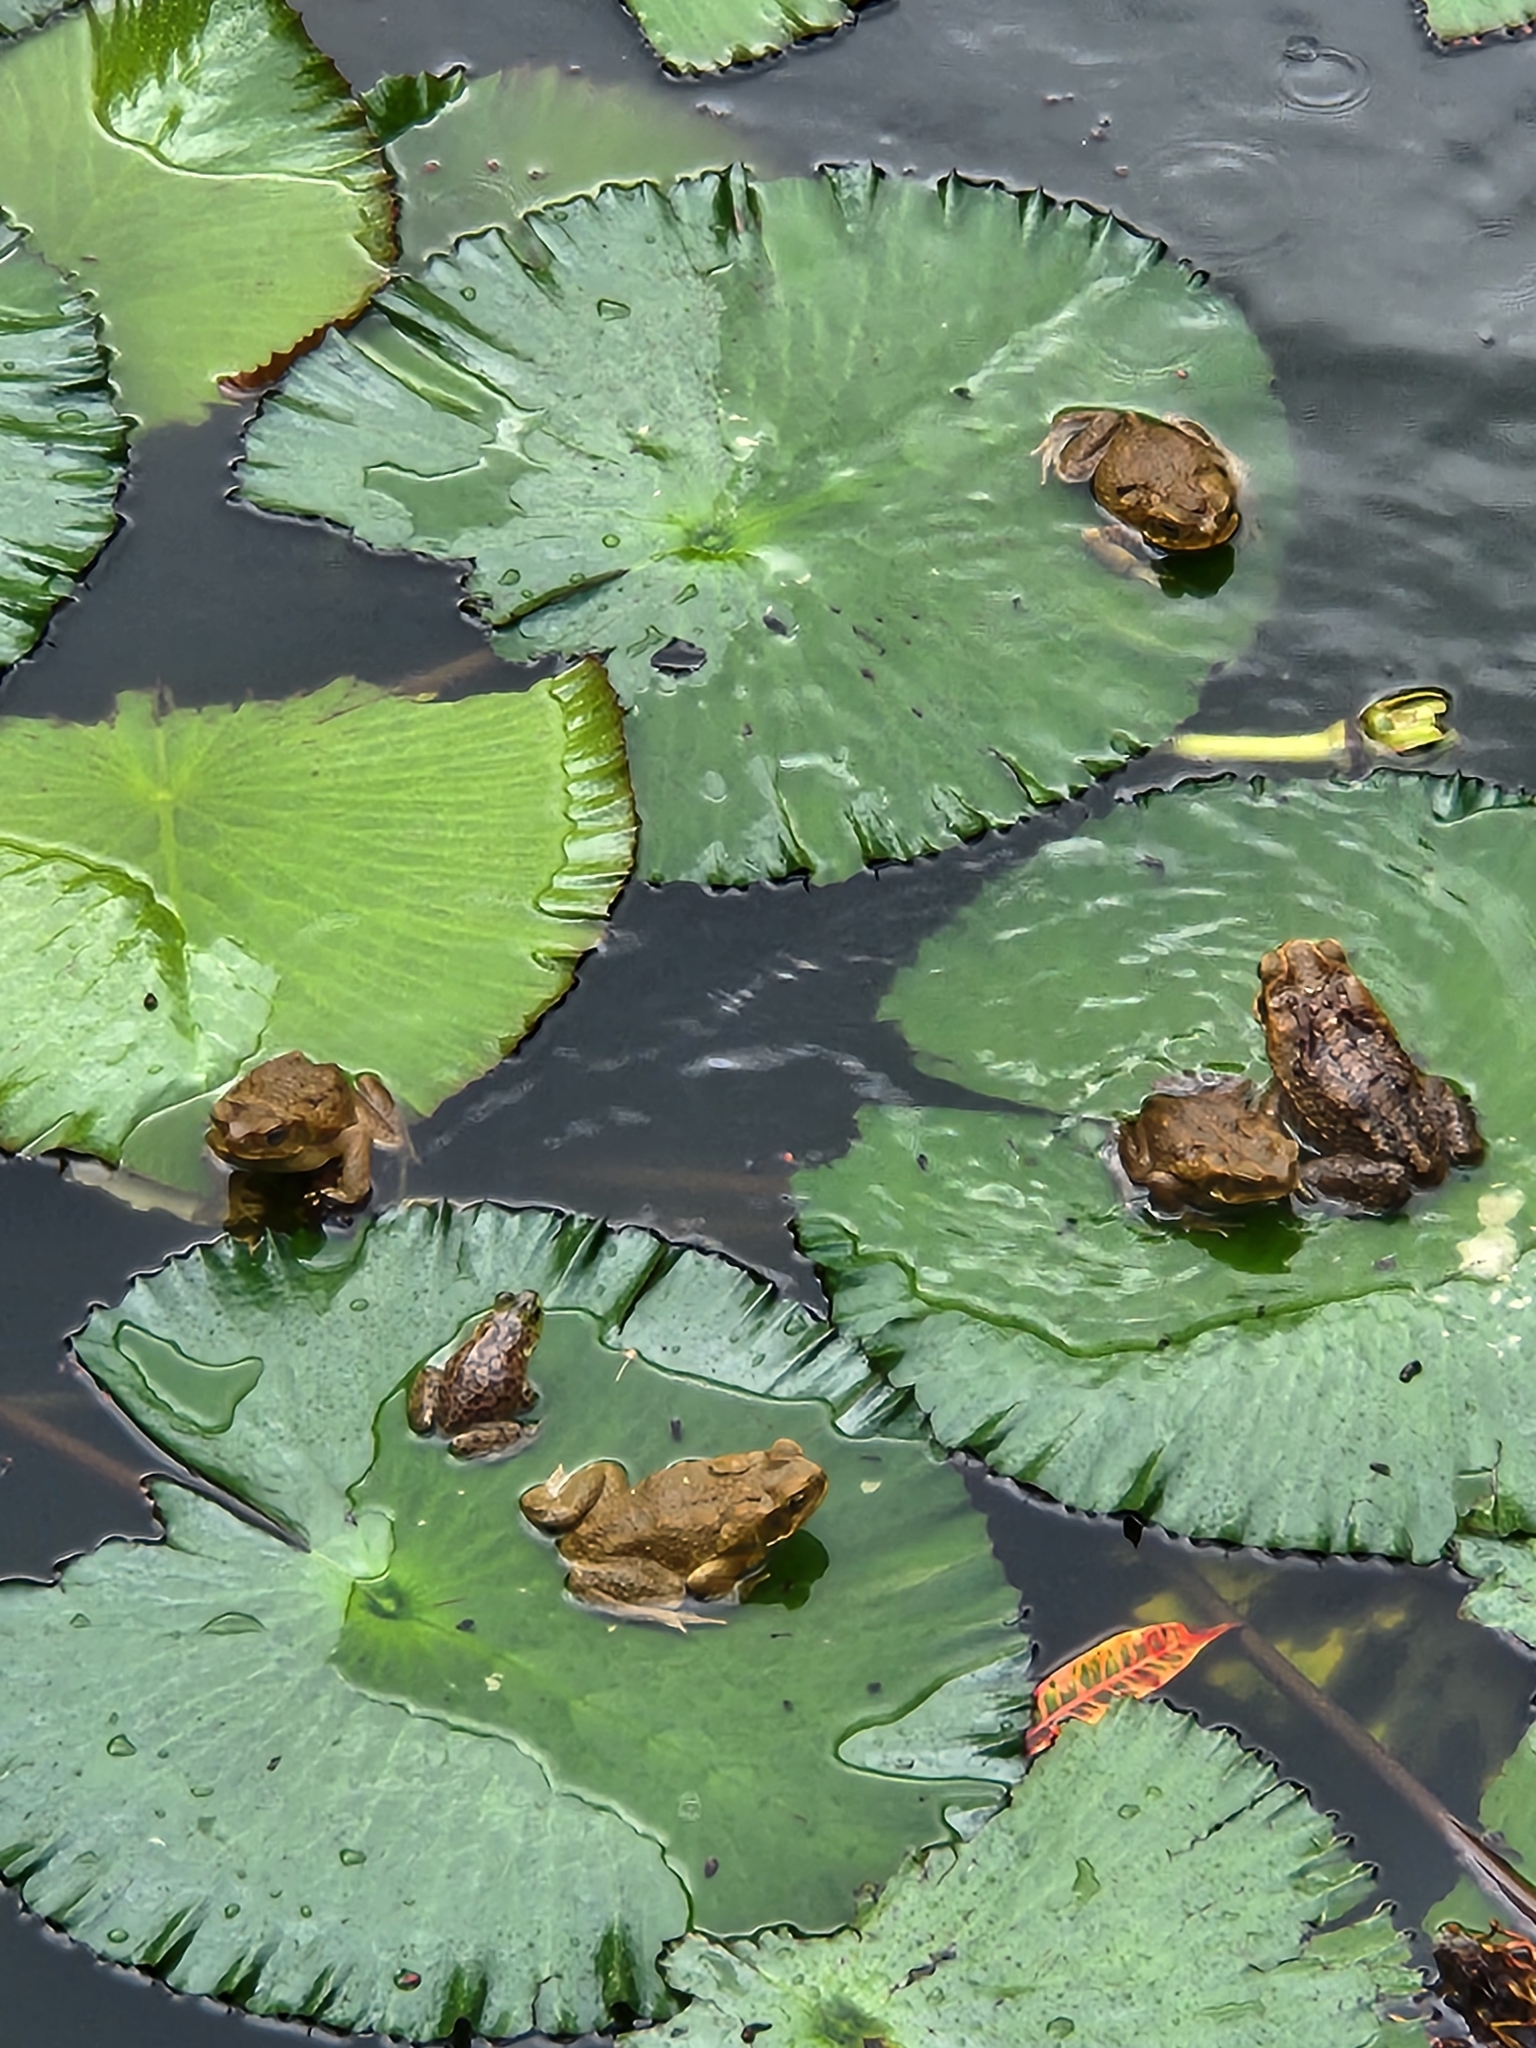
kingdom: Animalia
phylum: Chordata
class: Amphibia
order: Anura
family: Bufonidae
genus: Rhinella
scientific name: Rhinella marina
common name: Cane toad
